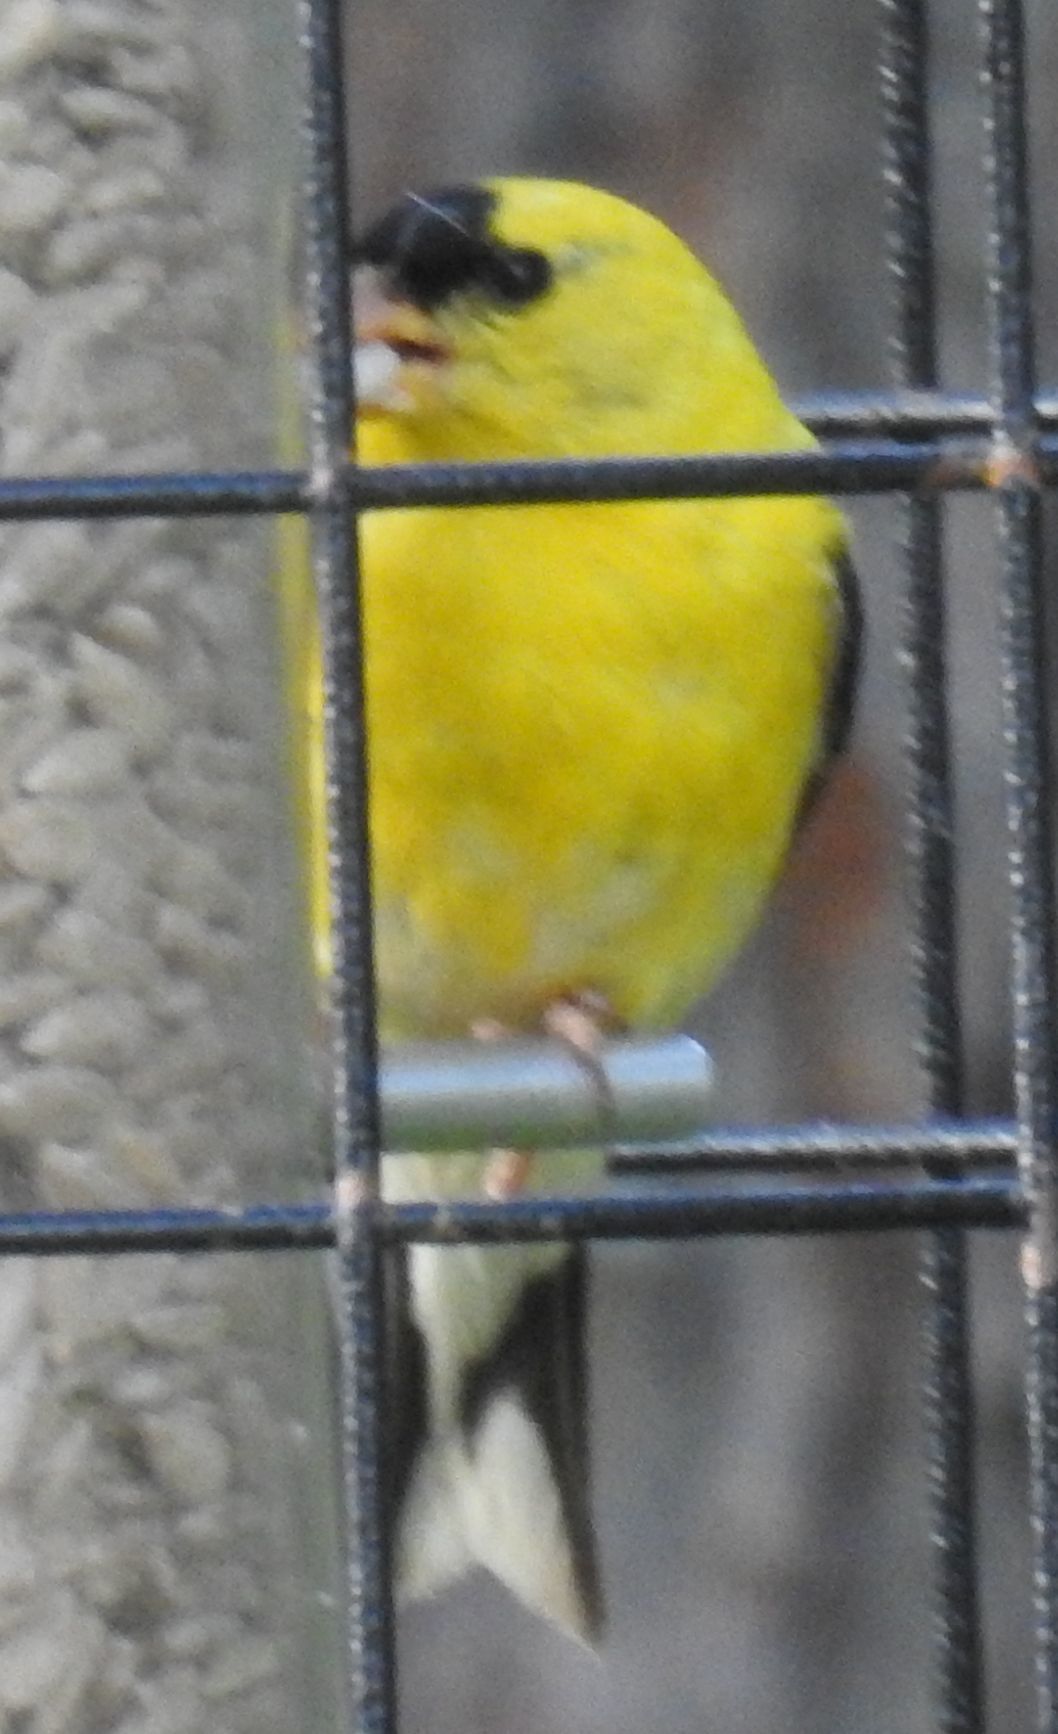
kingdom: Animalia
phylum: Chordata
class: Aves
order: Passeriformes
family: Fringillidae
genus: Spinus
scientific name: Spinus tristis
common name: American goldfinch
